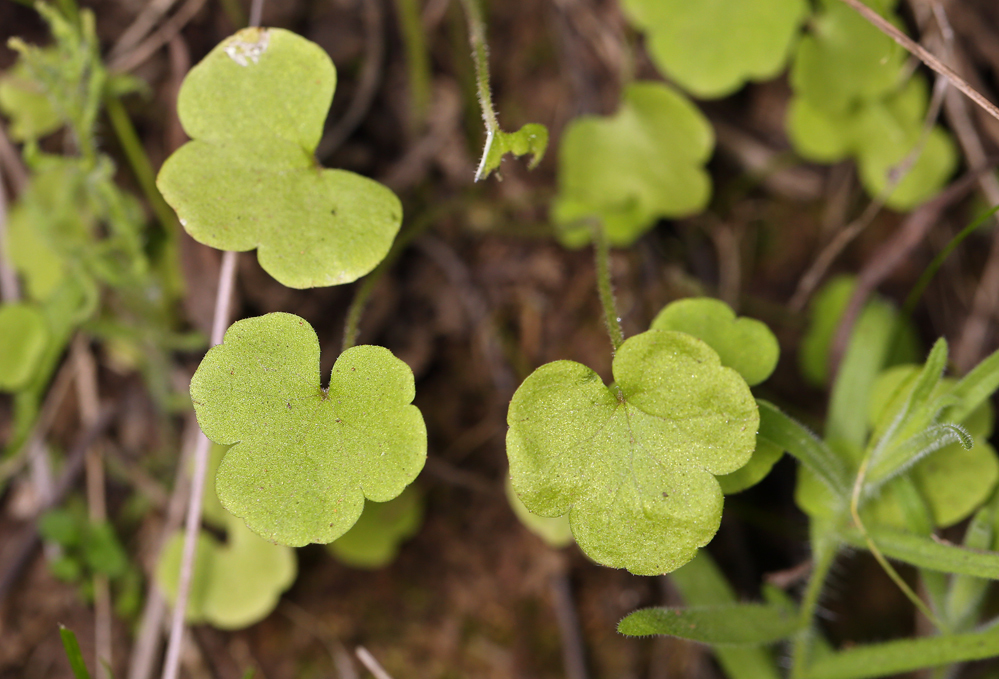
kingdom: Plantae
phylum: Tracheophyta
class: Magnoliopsida
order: Saxifragales
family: Saxifragaceae
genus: Lithophragma
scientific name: Lithophragma cymbalaria
